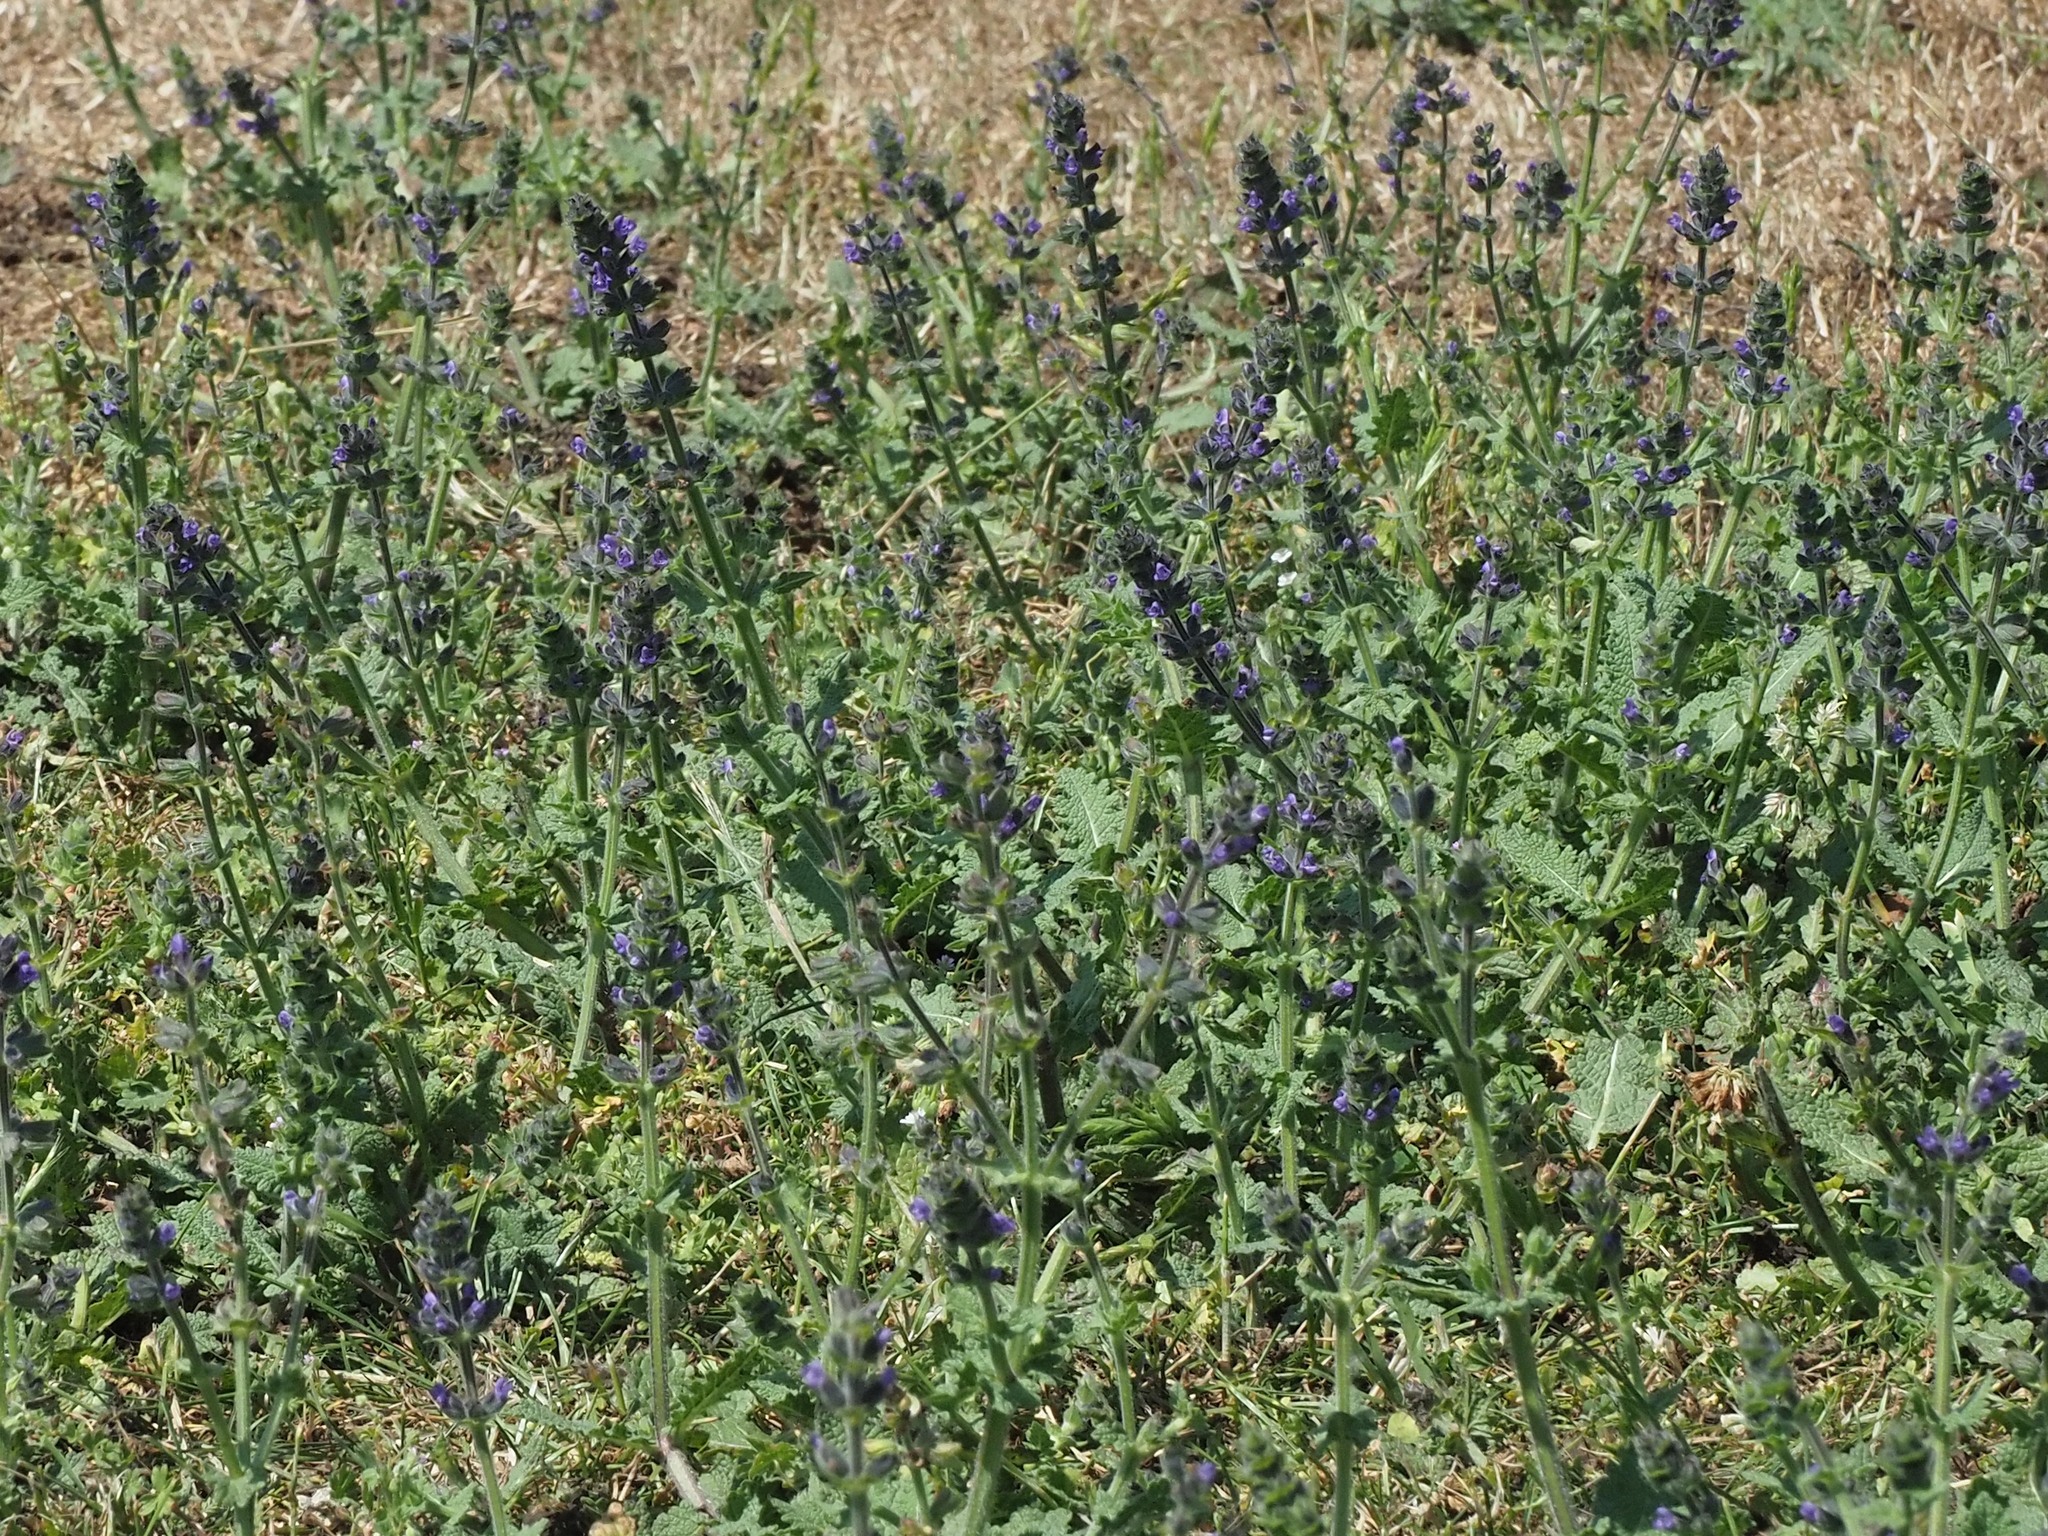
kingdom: Plantae
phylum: Tracheophyta
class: Magnoliopsida
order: Lamiales
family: Lamiaceae
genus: Salvia
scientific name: Salvia verbenaca
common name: Wild clary
